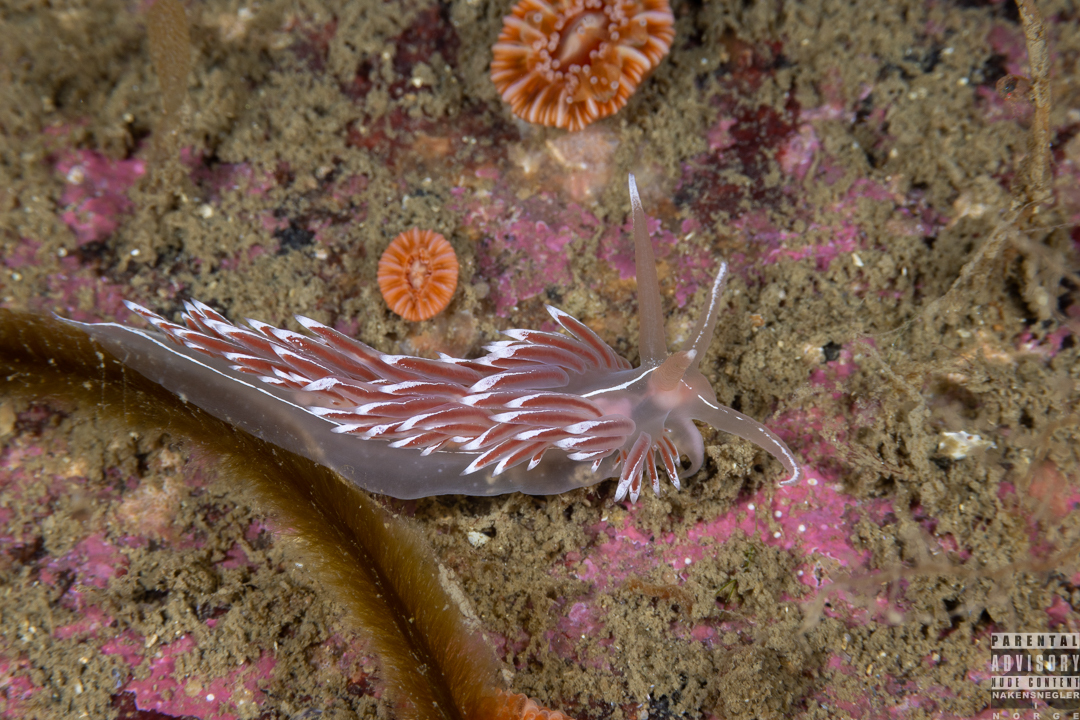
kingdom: Animalia
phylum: Mollusca
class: Gastropoda
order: Nudibranchia
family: Coryphellidae
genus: Coryphella
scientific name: Coryphella lineata
